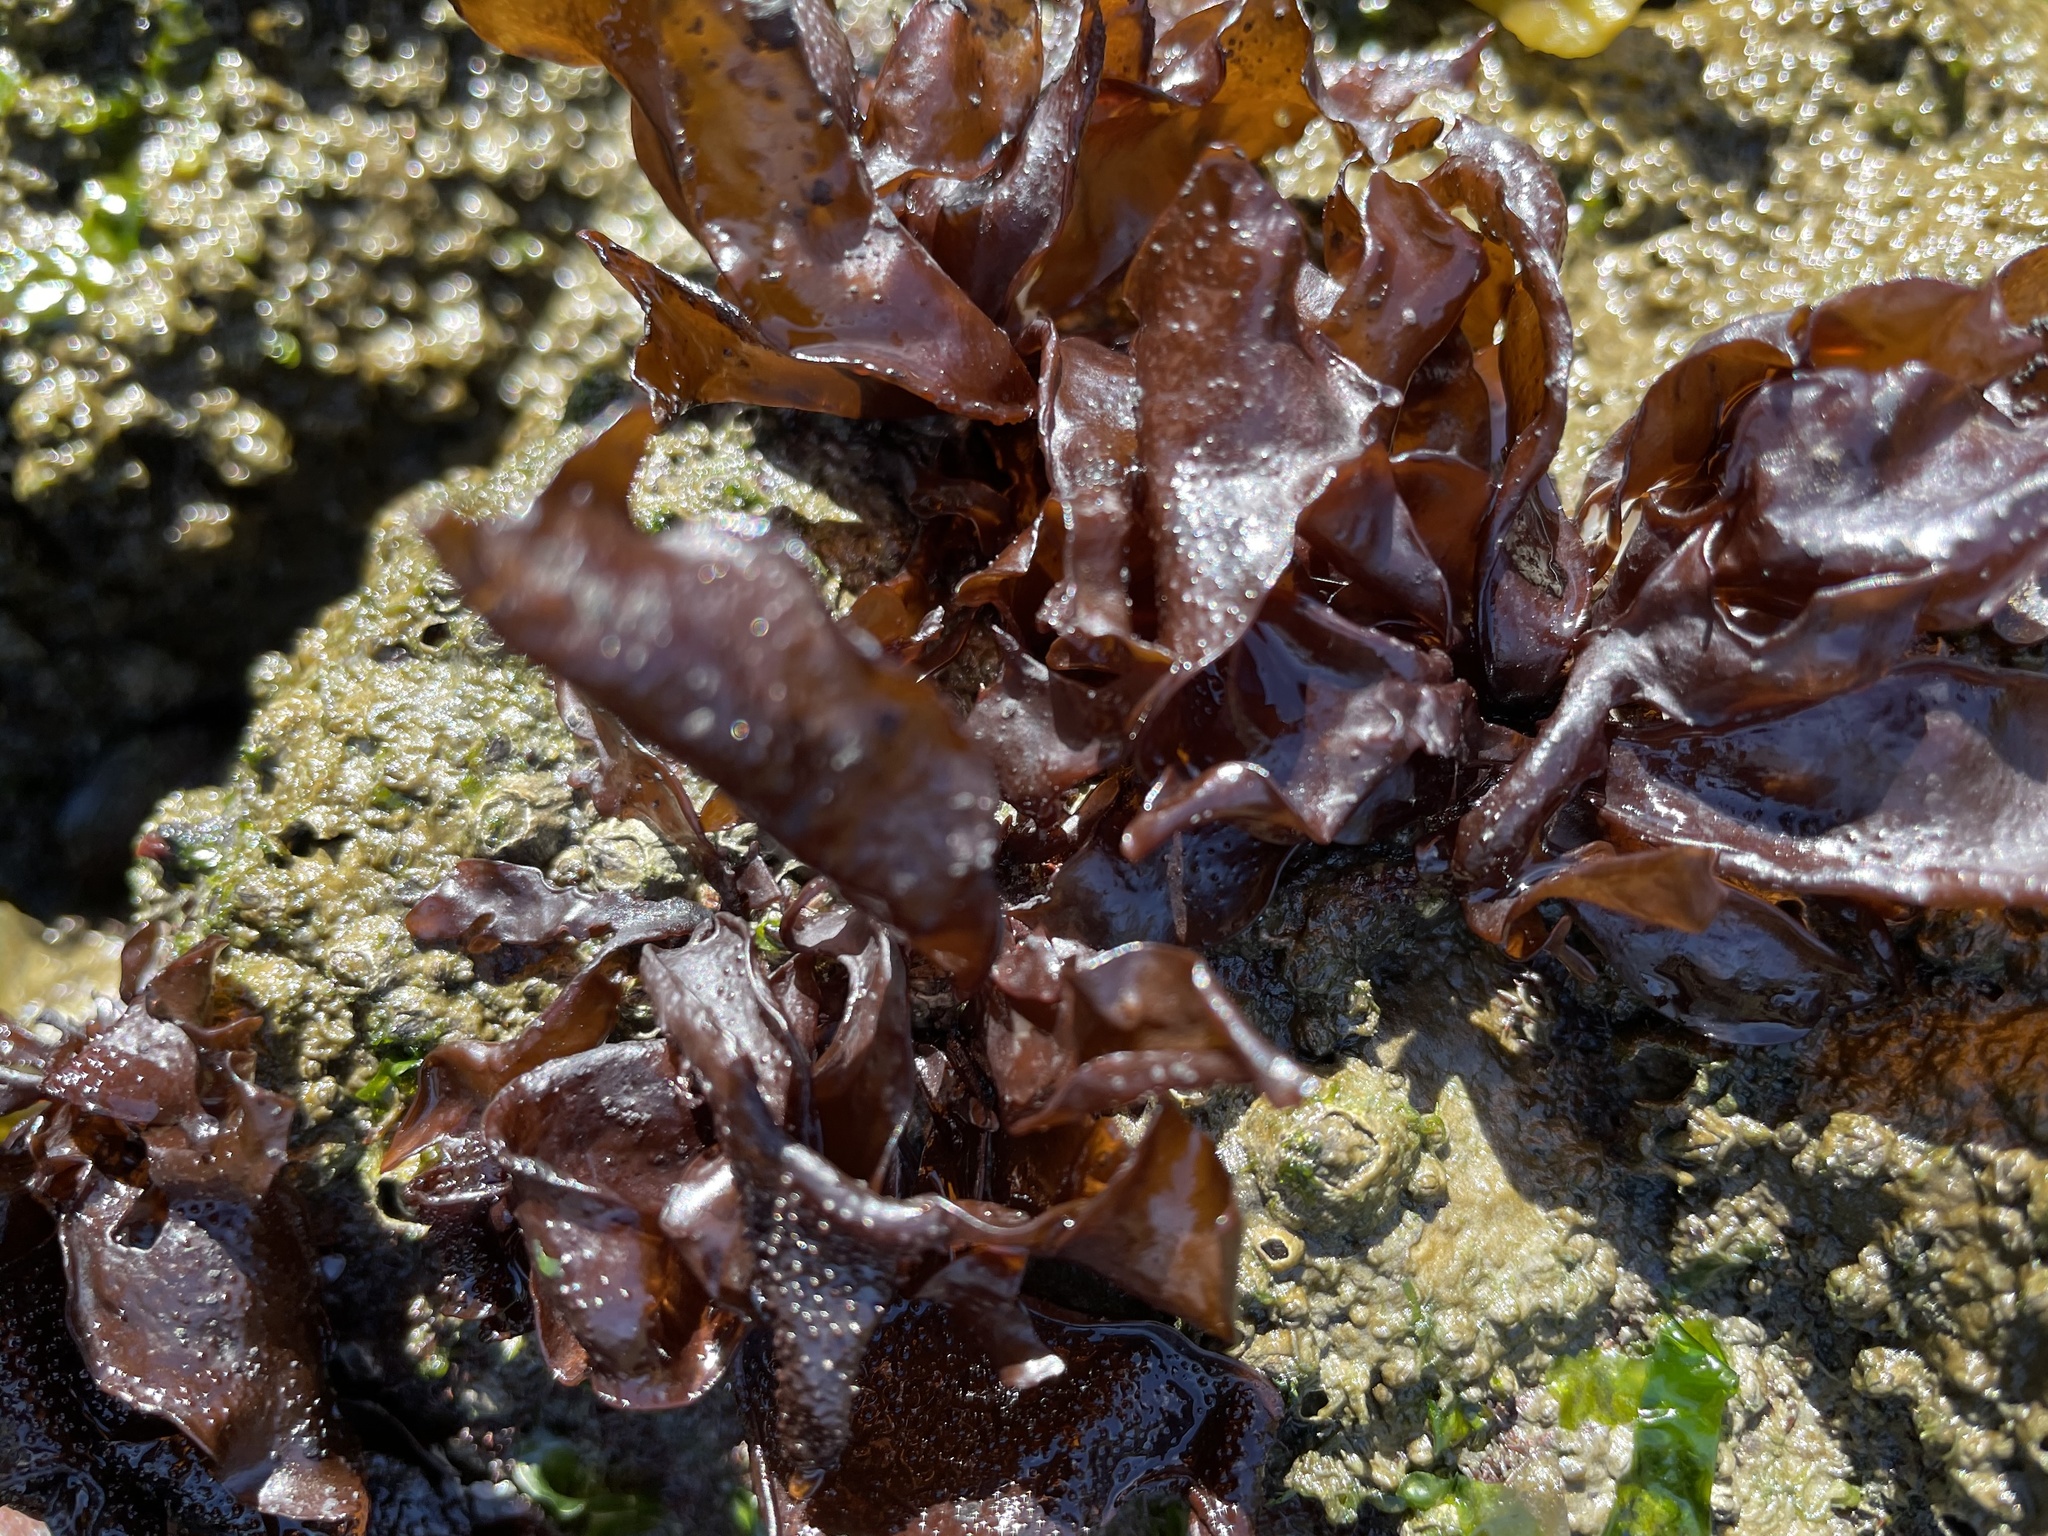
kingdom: Plantae
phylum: Rhodophyta
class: Florideophyceae
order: Gigartinales
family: Phyllophoraceae
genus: Mastocarpus
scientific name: Mastocarpus papillatus
